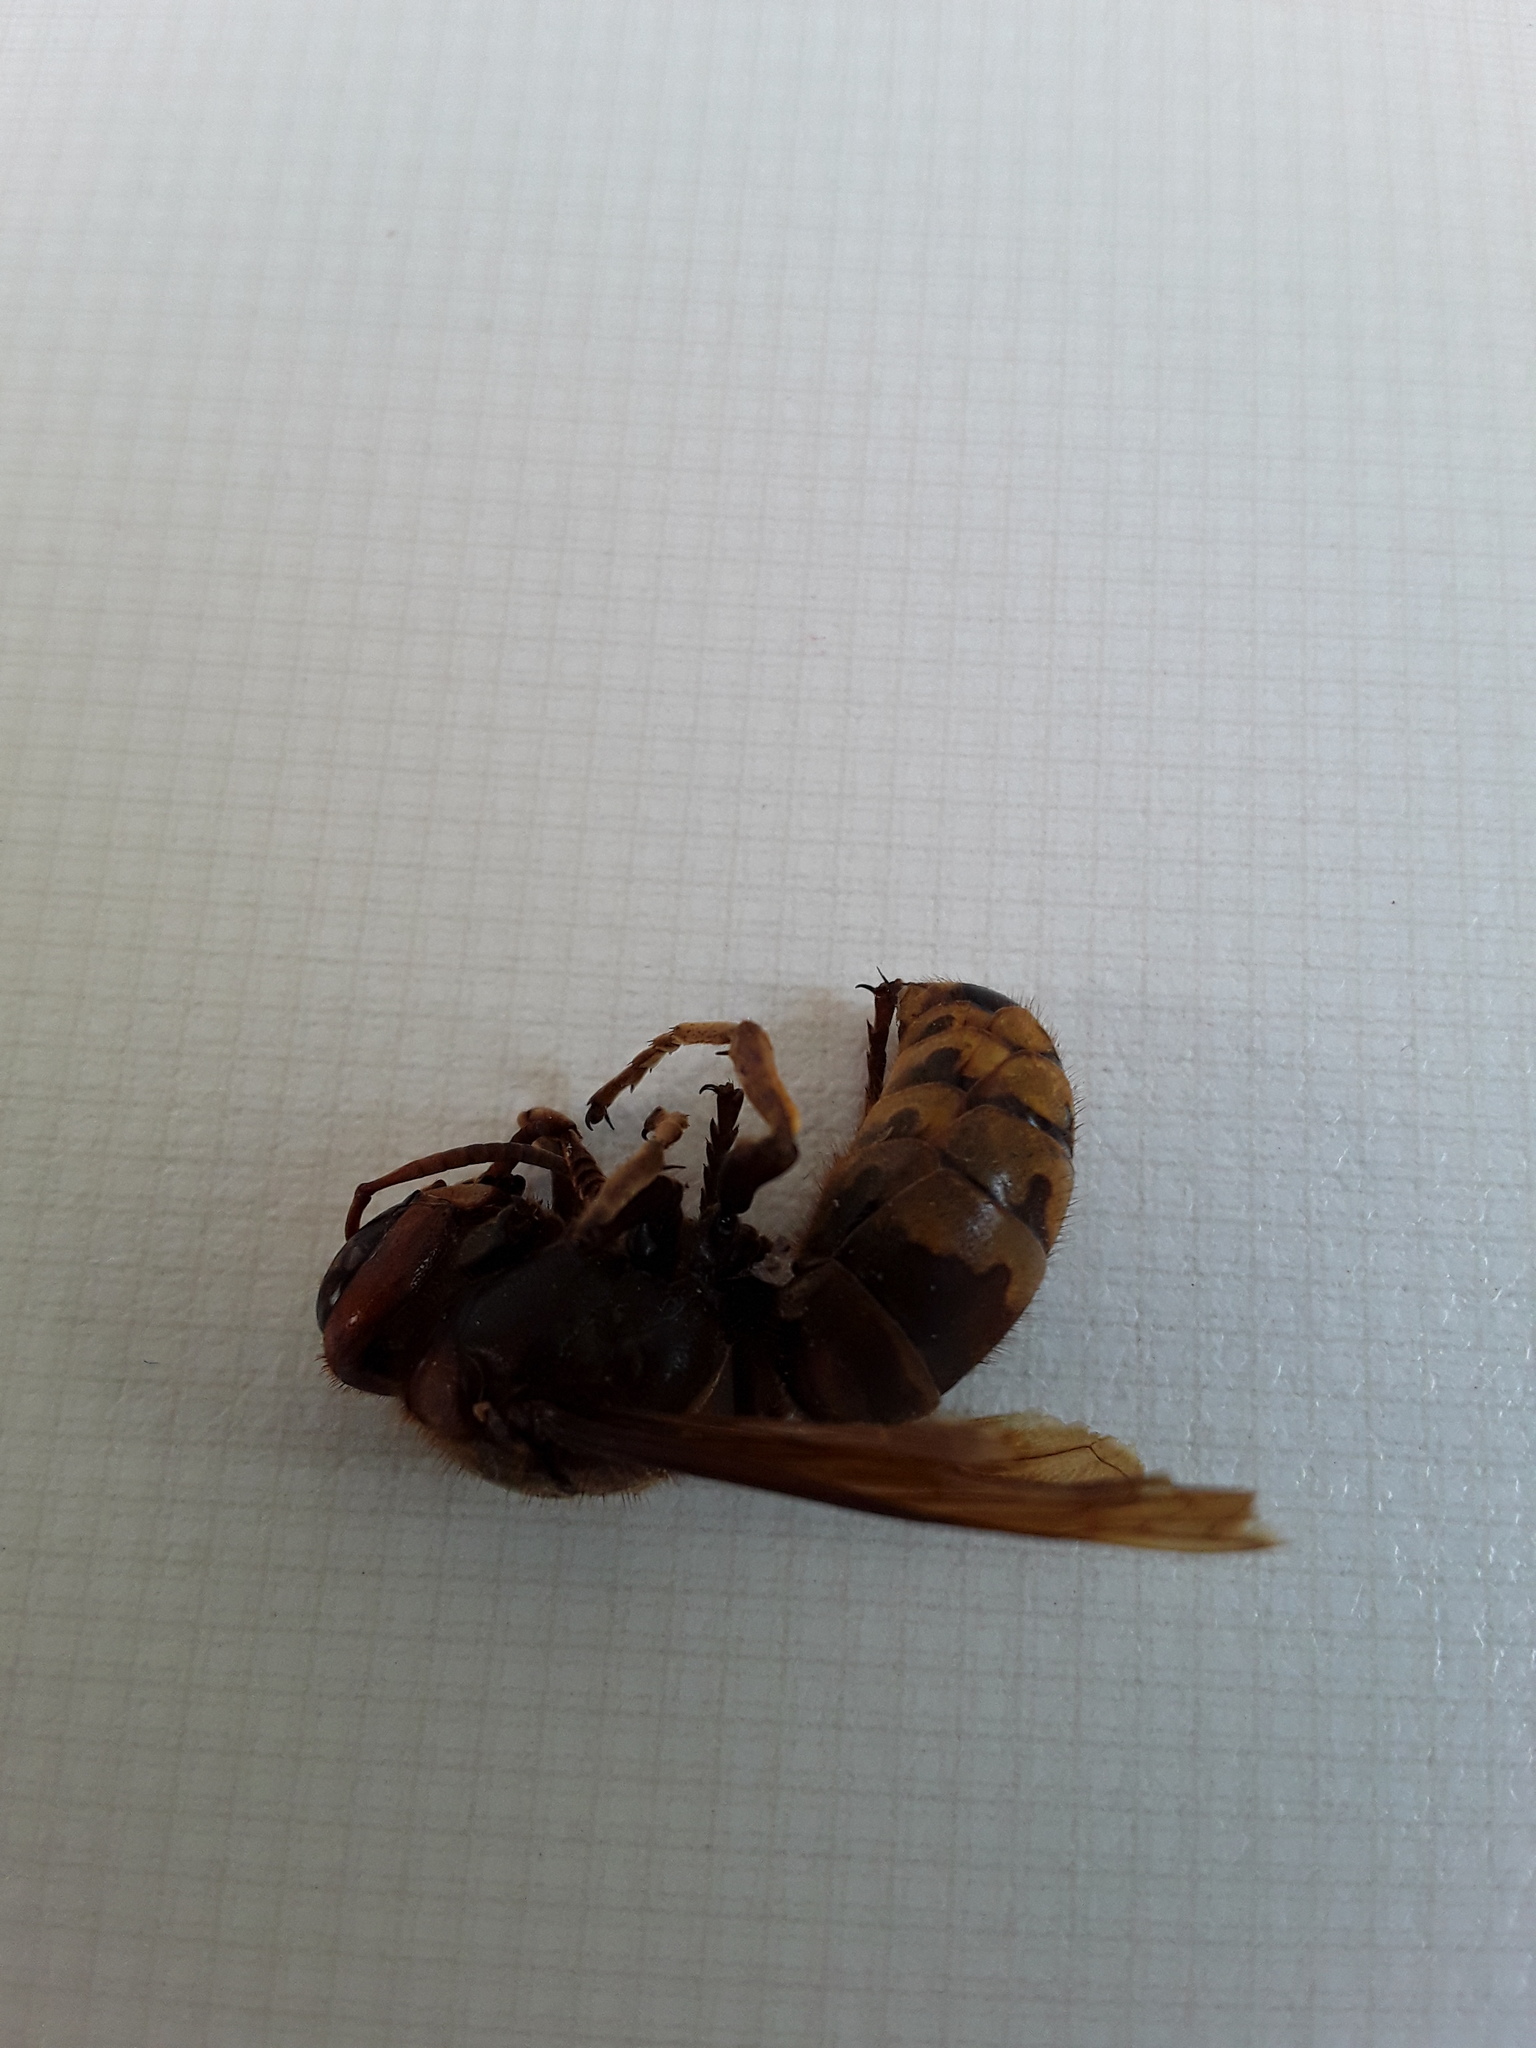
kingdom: Animalia
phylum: Arthropoda
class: Insecta
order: Hymenoptera
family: Vespidae
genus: Vespa
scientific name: Vespa crabro
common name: Hornet
